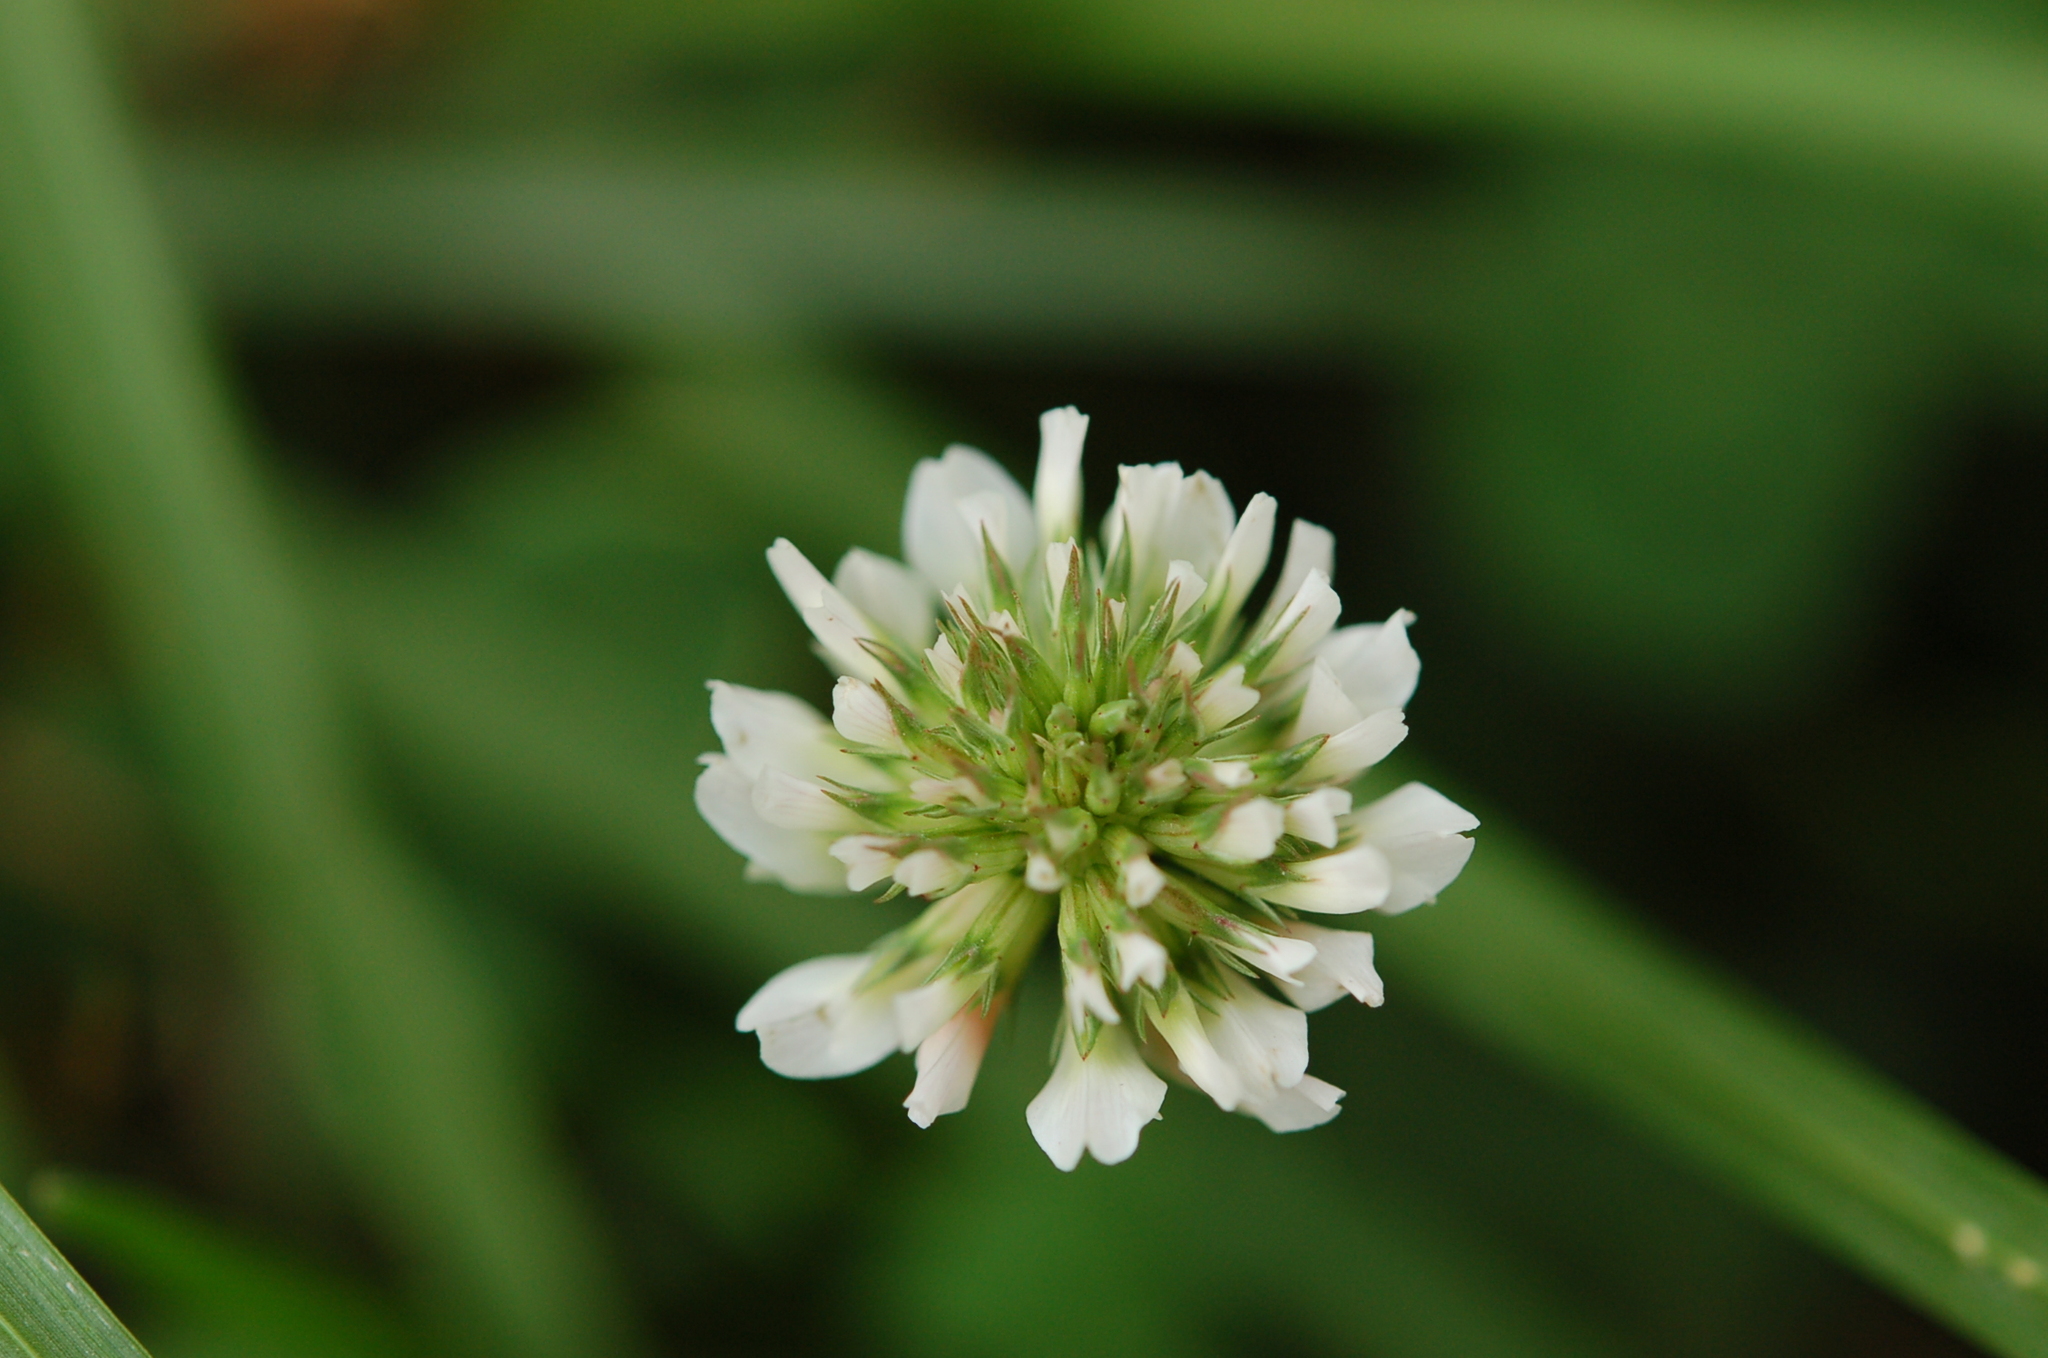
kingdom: Plantae
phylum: Tracheophyta
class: Magnoliopsida
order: Fabales
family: Fabaceae
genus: Trifolium
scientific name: Trifolium repens
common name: White clover
